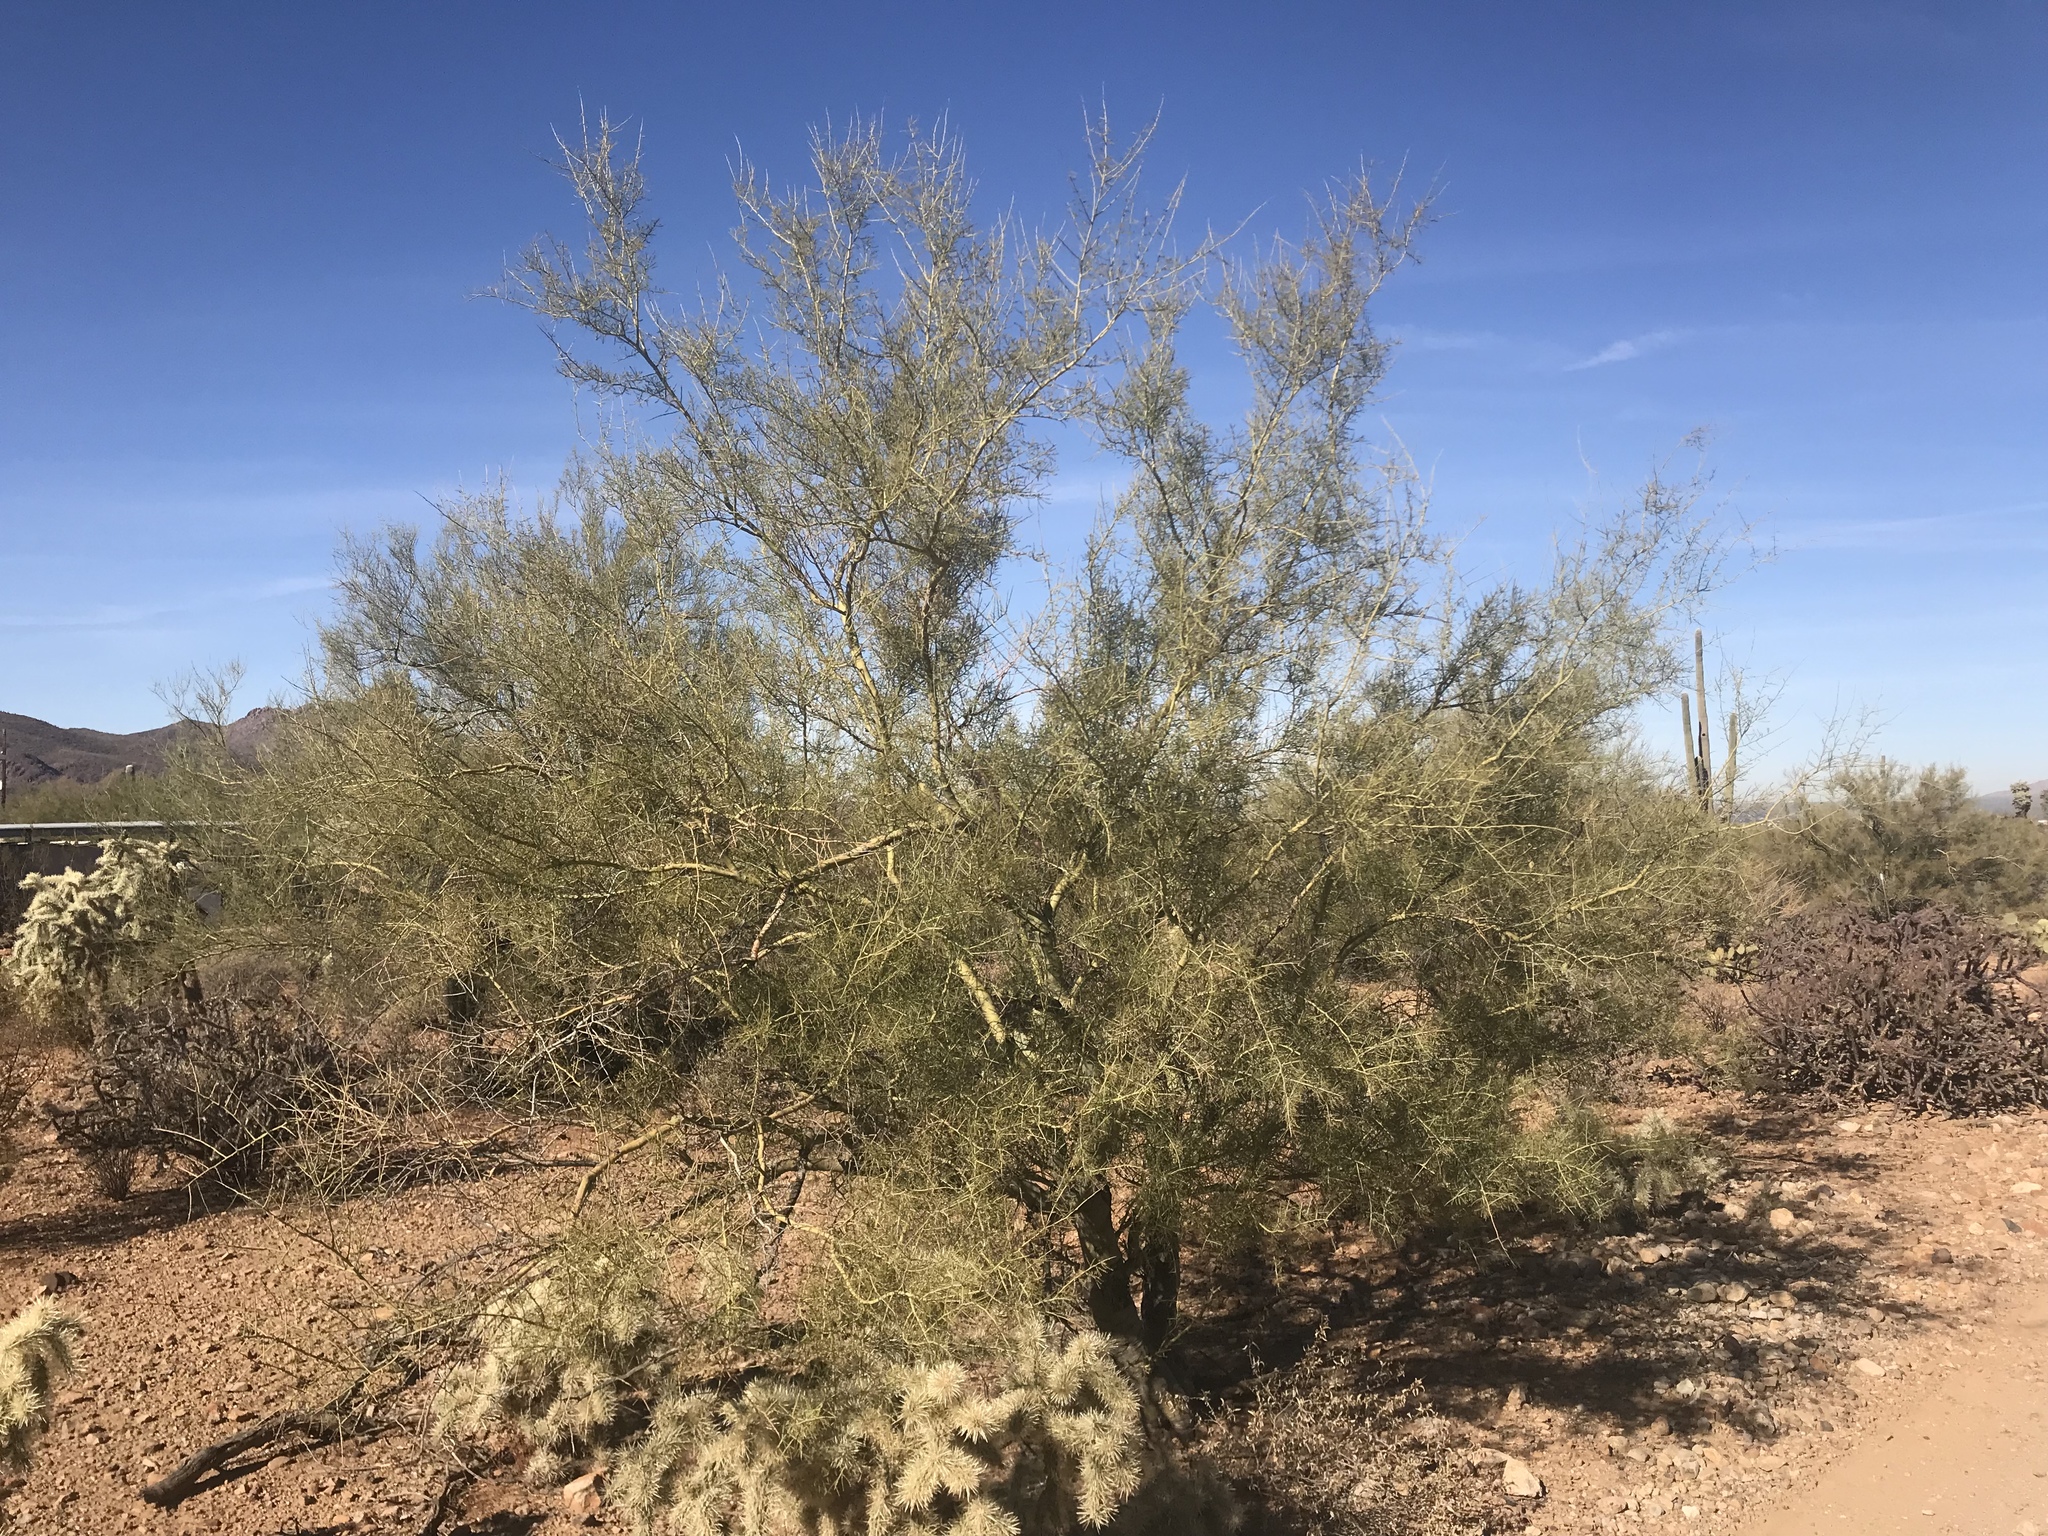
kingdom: Plantae
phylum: Tracheophyta
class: Magnoliopsida
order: Fabales
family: Fabaceae
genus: Parkinsonia
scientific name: Parkinsonia microphylla
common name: Yellow paloverde
